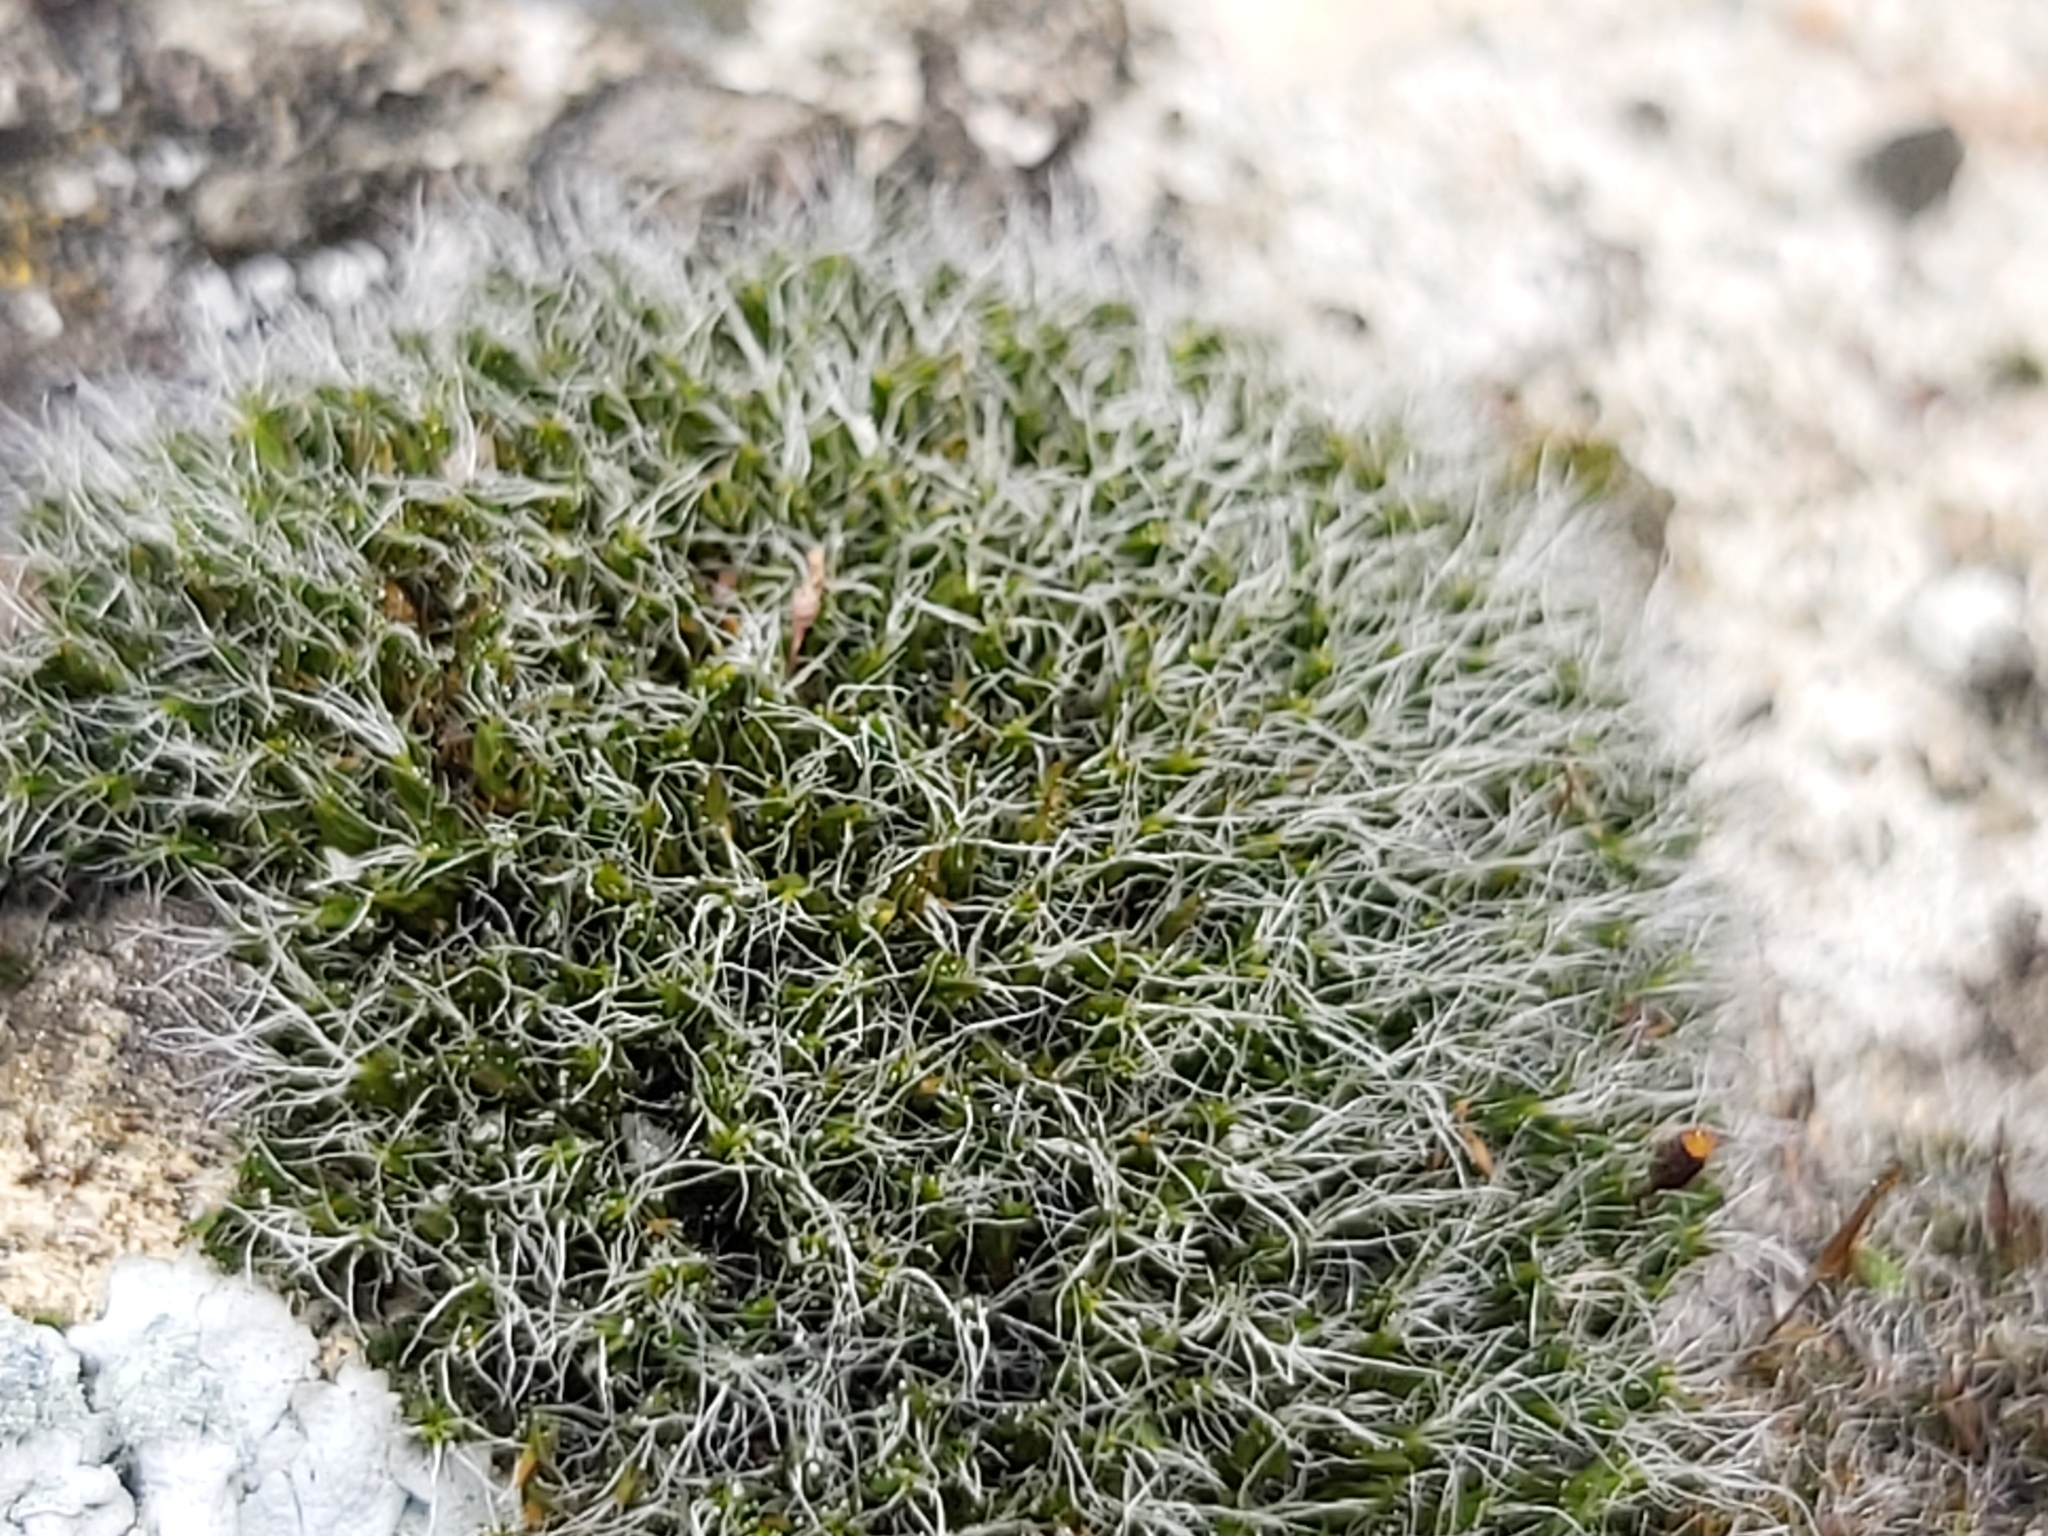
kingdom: Plantae
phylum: Bryophyta
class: Bryopsida
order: Grimmiales
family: Grimmiaceae
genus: Grimmia
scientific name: Grimmia pulvinata
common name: Grey-cushioned grimmia
